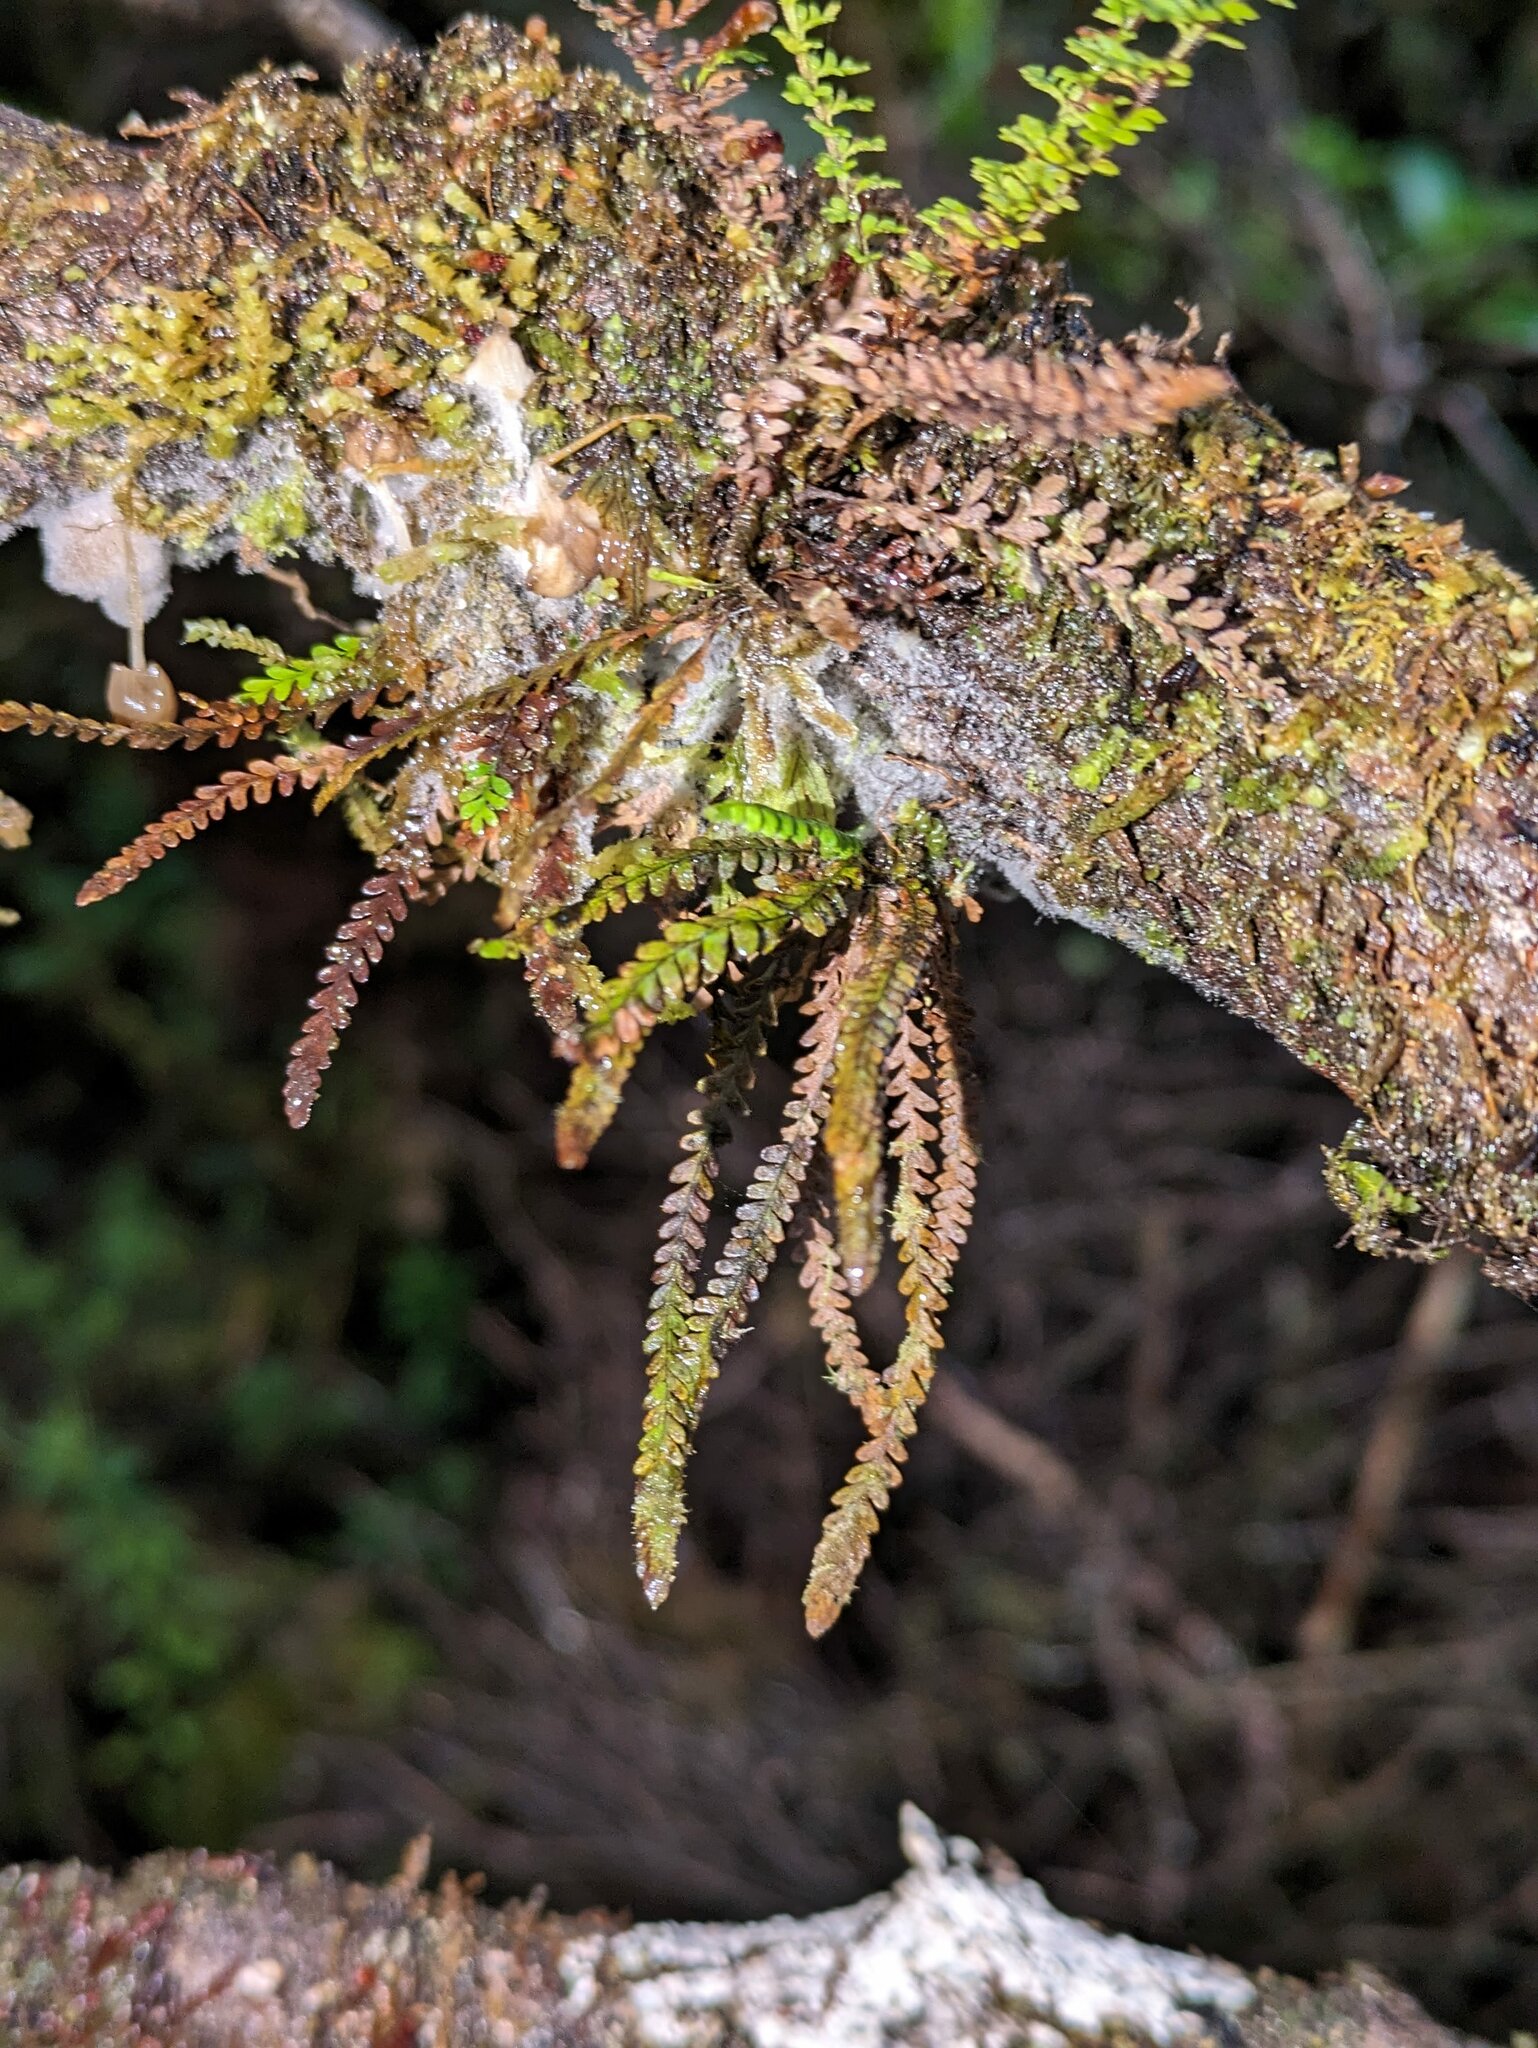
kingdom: Plantae
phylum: Tracheophyta
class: Polypodiopsida
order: Polypodiales
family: Polypodiaceae
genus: Stenogrammitis
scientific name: Stenogrammitis saffordii
